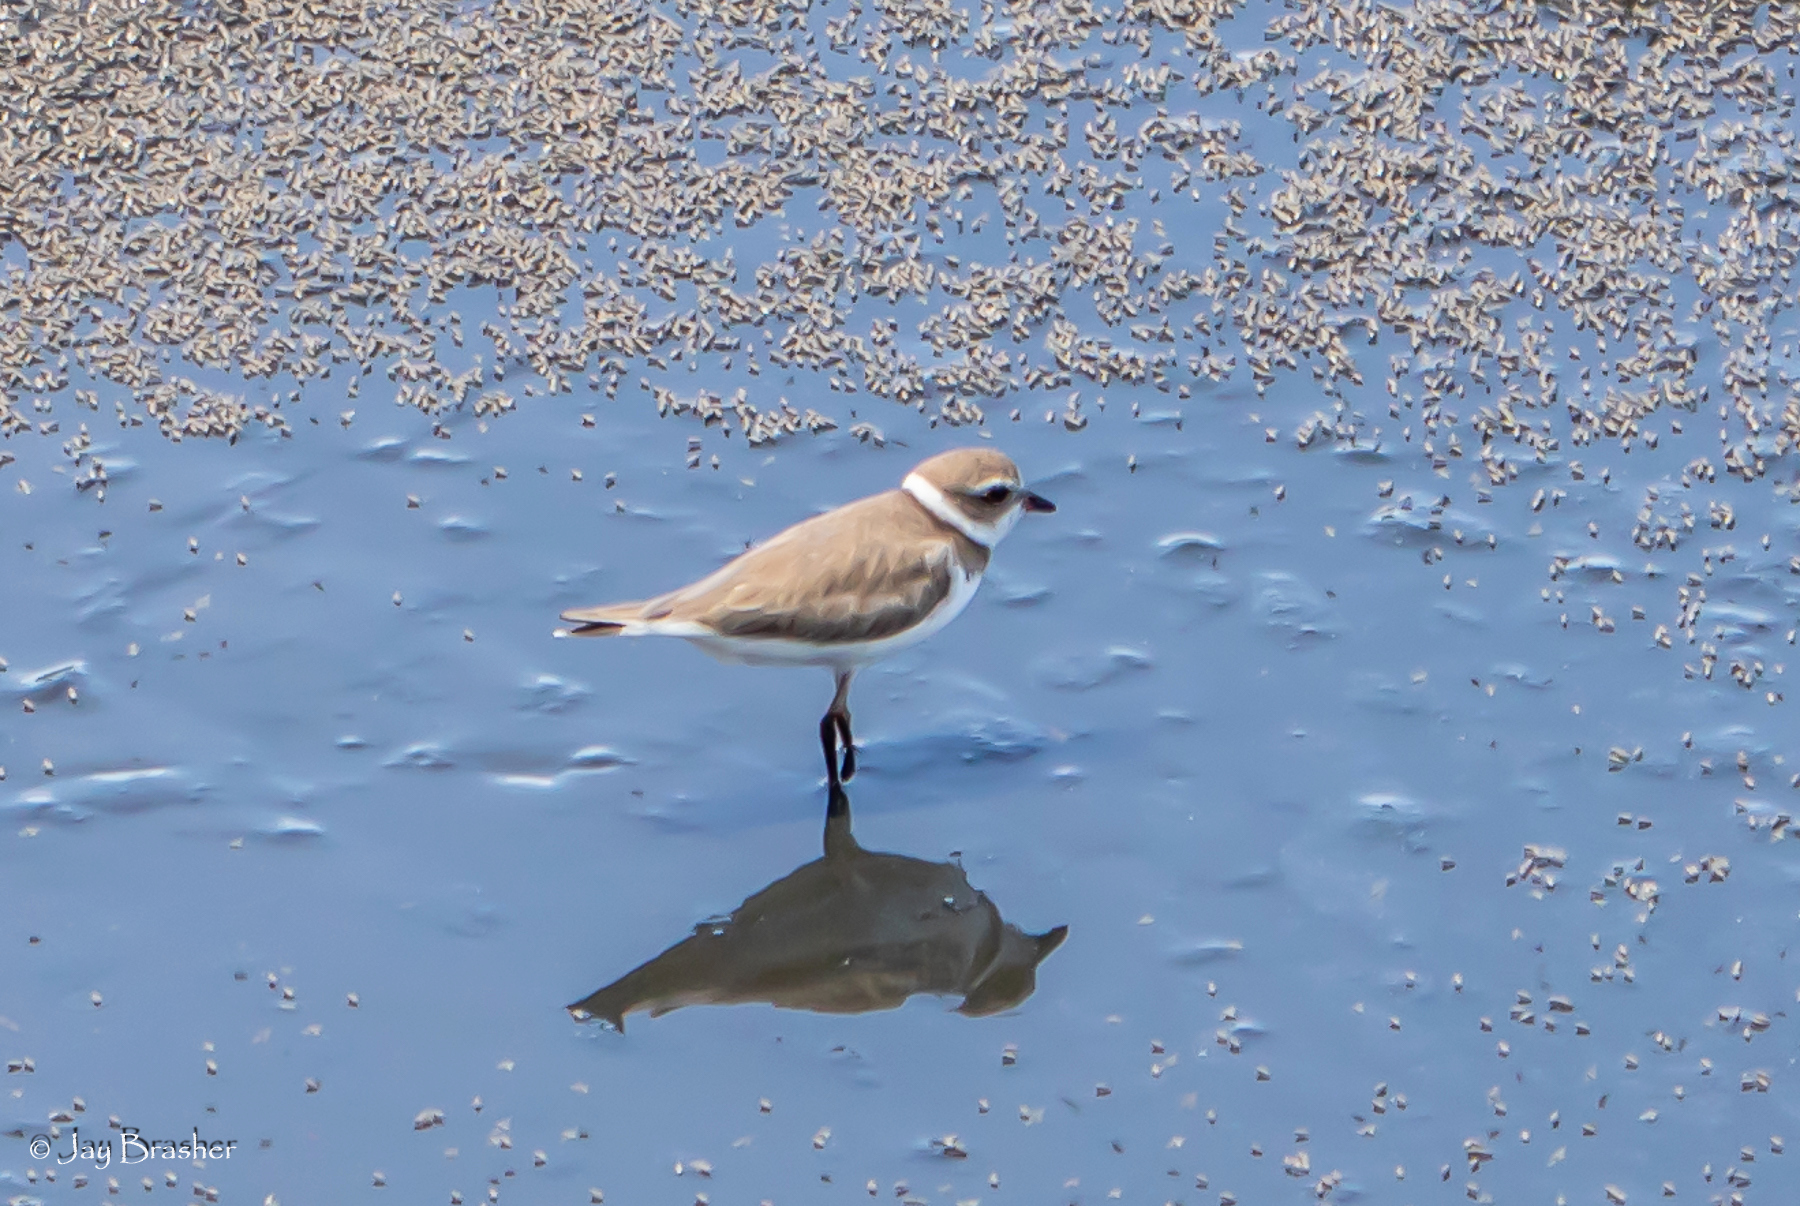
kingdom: Animalia
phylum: Chordata
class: Aves
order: Charadriiformes
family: Charadriidae
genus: Charadrius
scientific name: Charadrius semipalmatus
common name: Semipalmated plover
